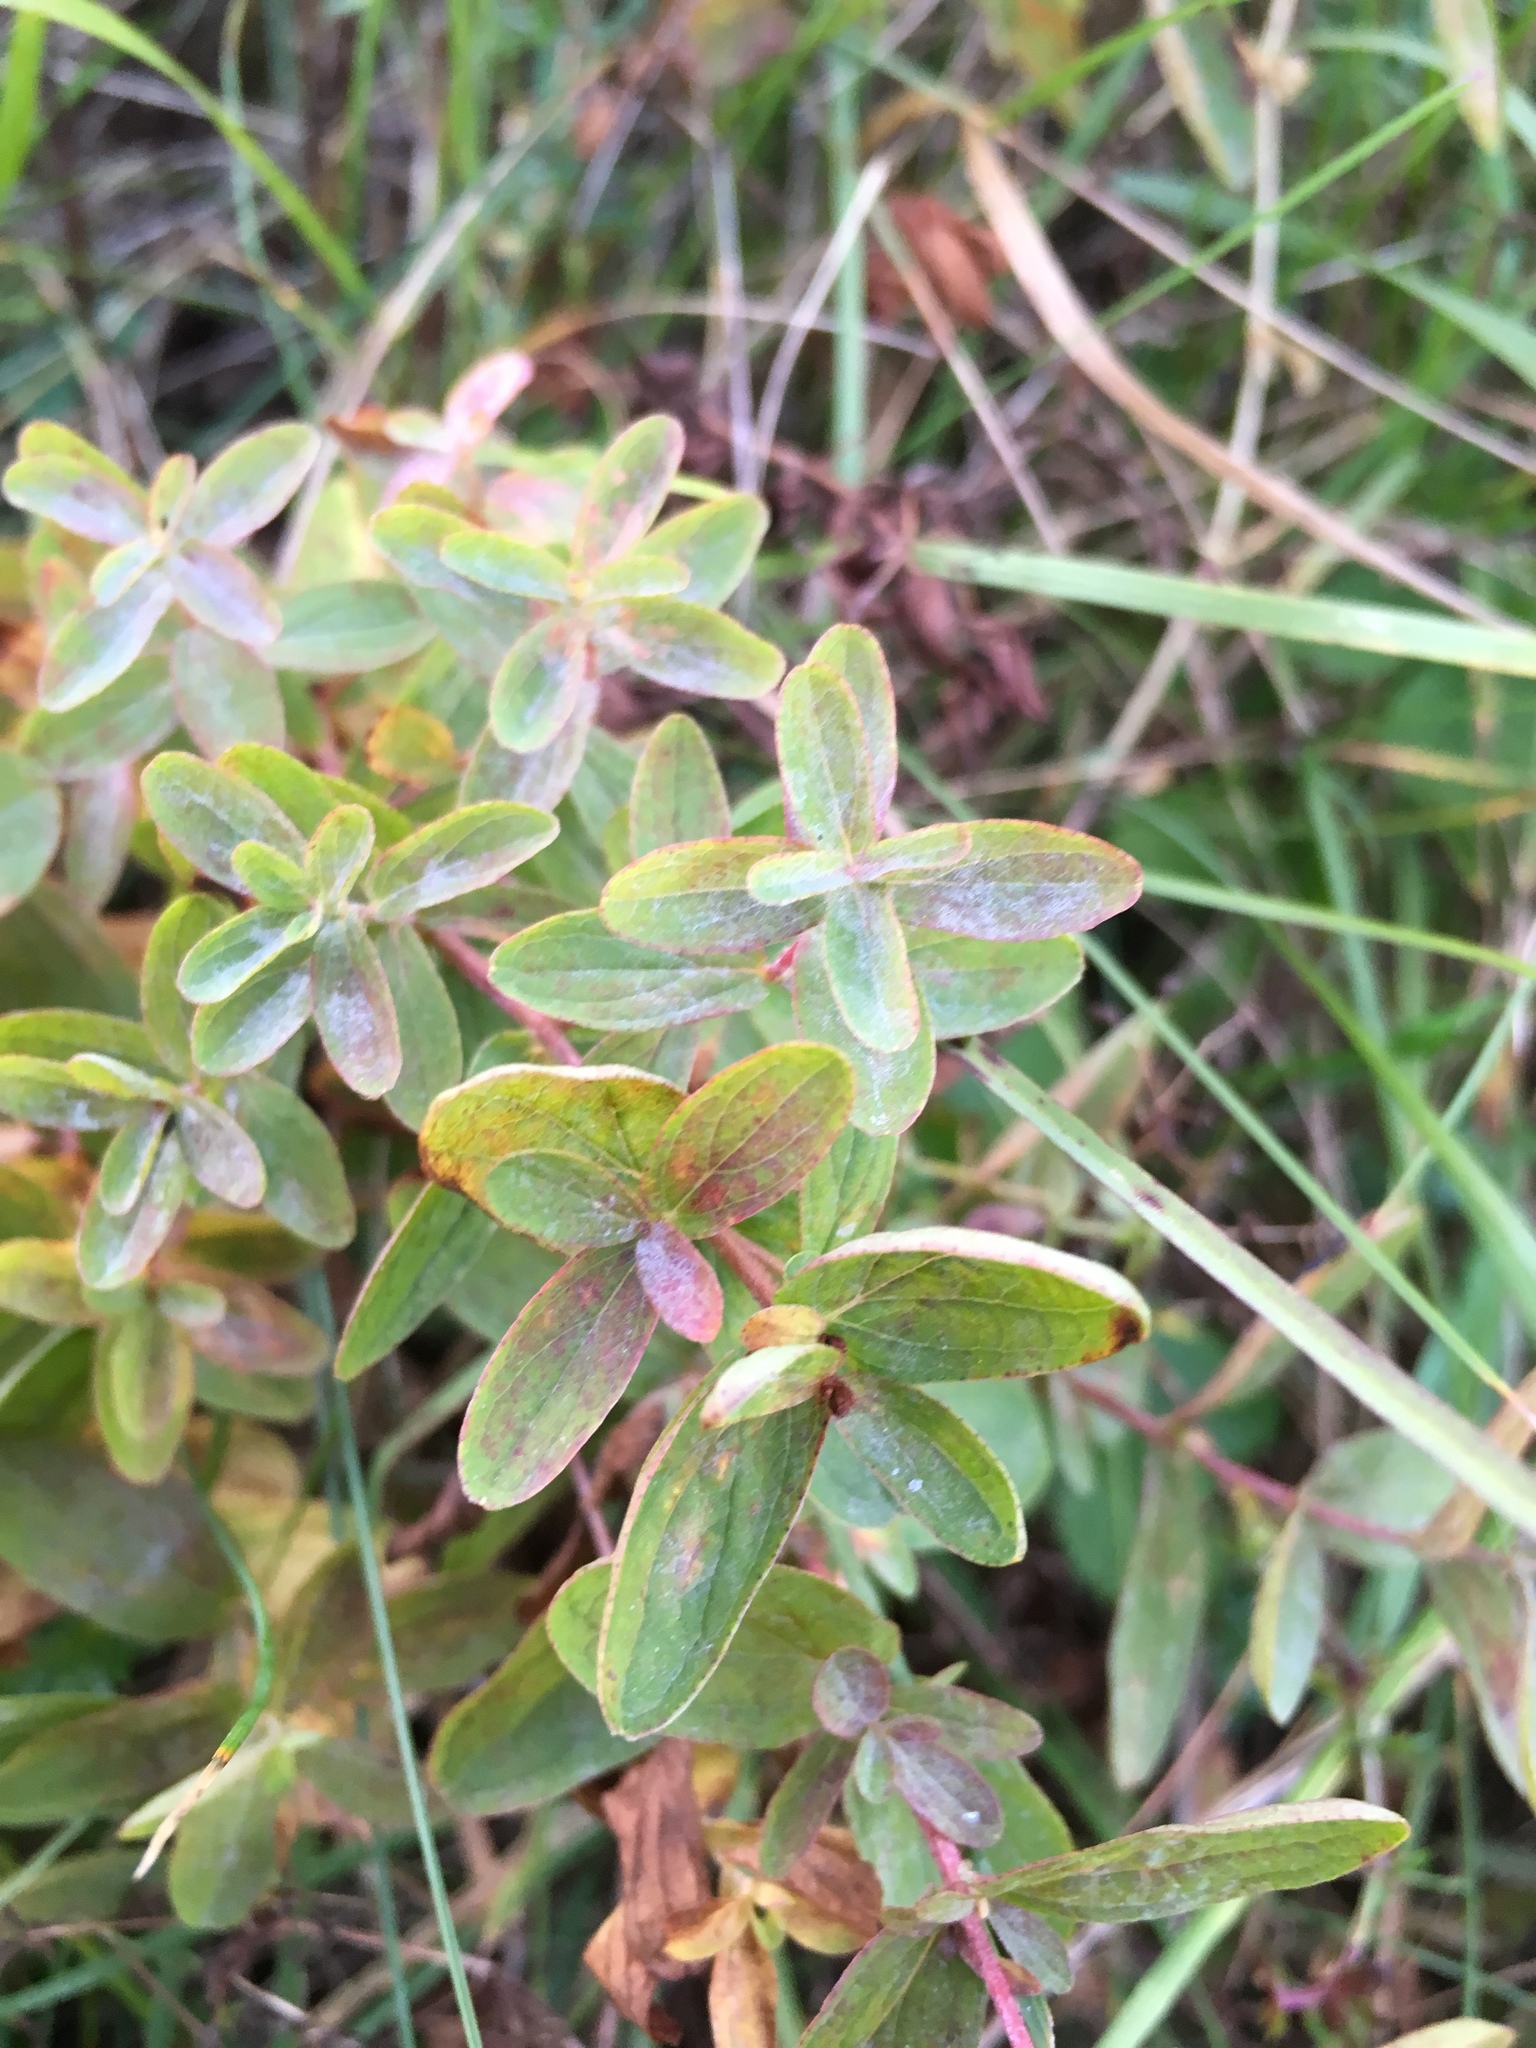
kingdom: Plantae
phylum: Tracheophyta
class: Magnoliopsida
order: Malpighiales
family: Hypericaceae
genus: Hypericum
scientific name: Hypericum perforatum
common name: Common st. johnswort
